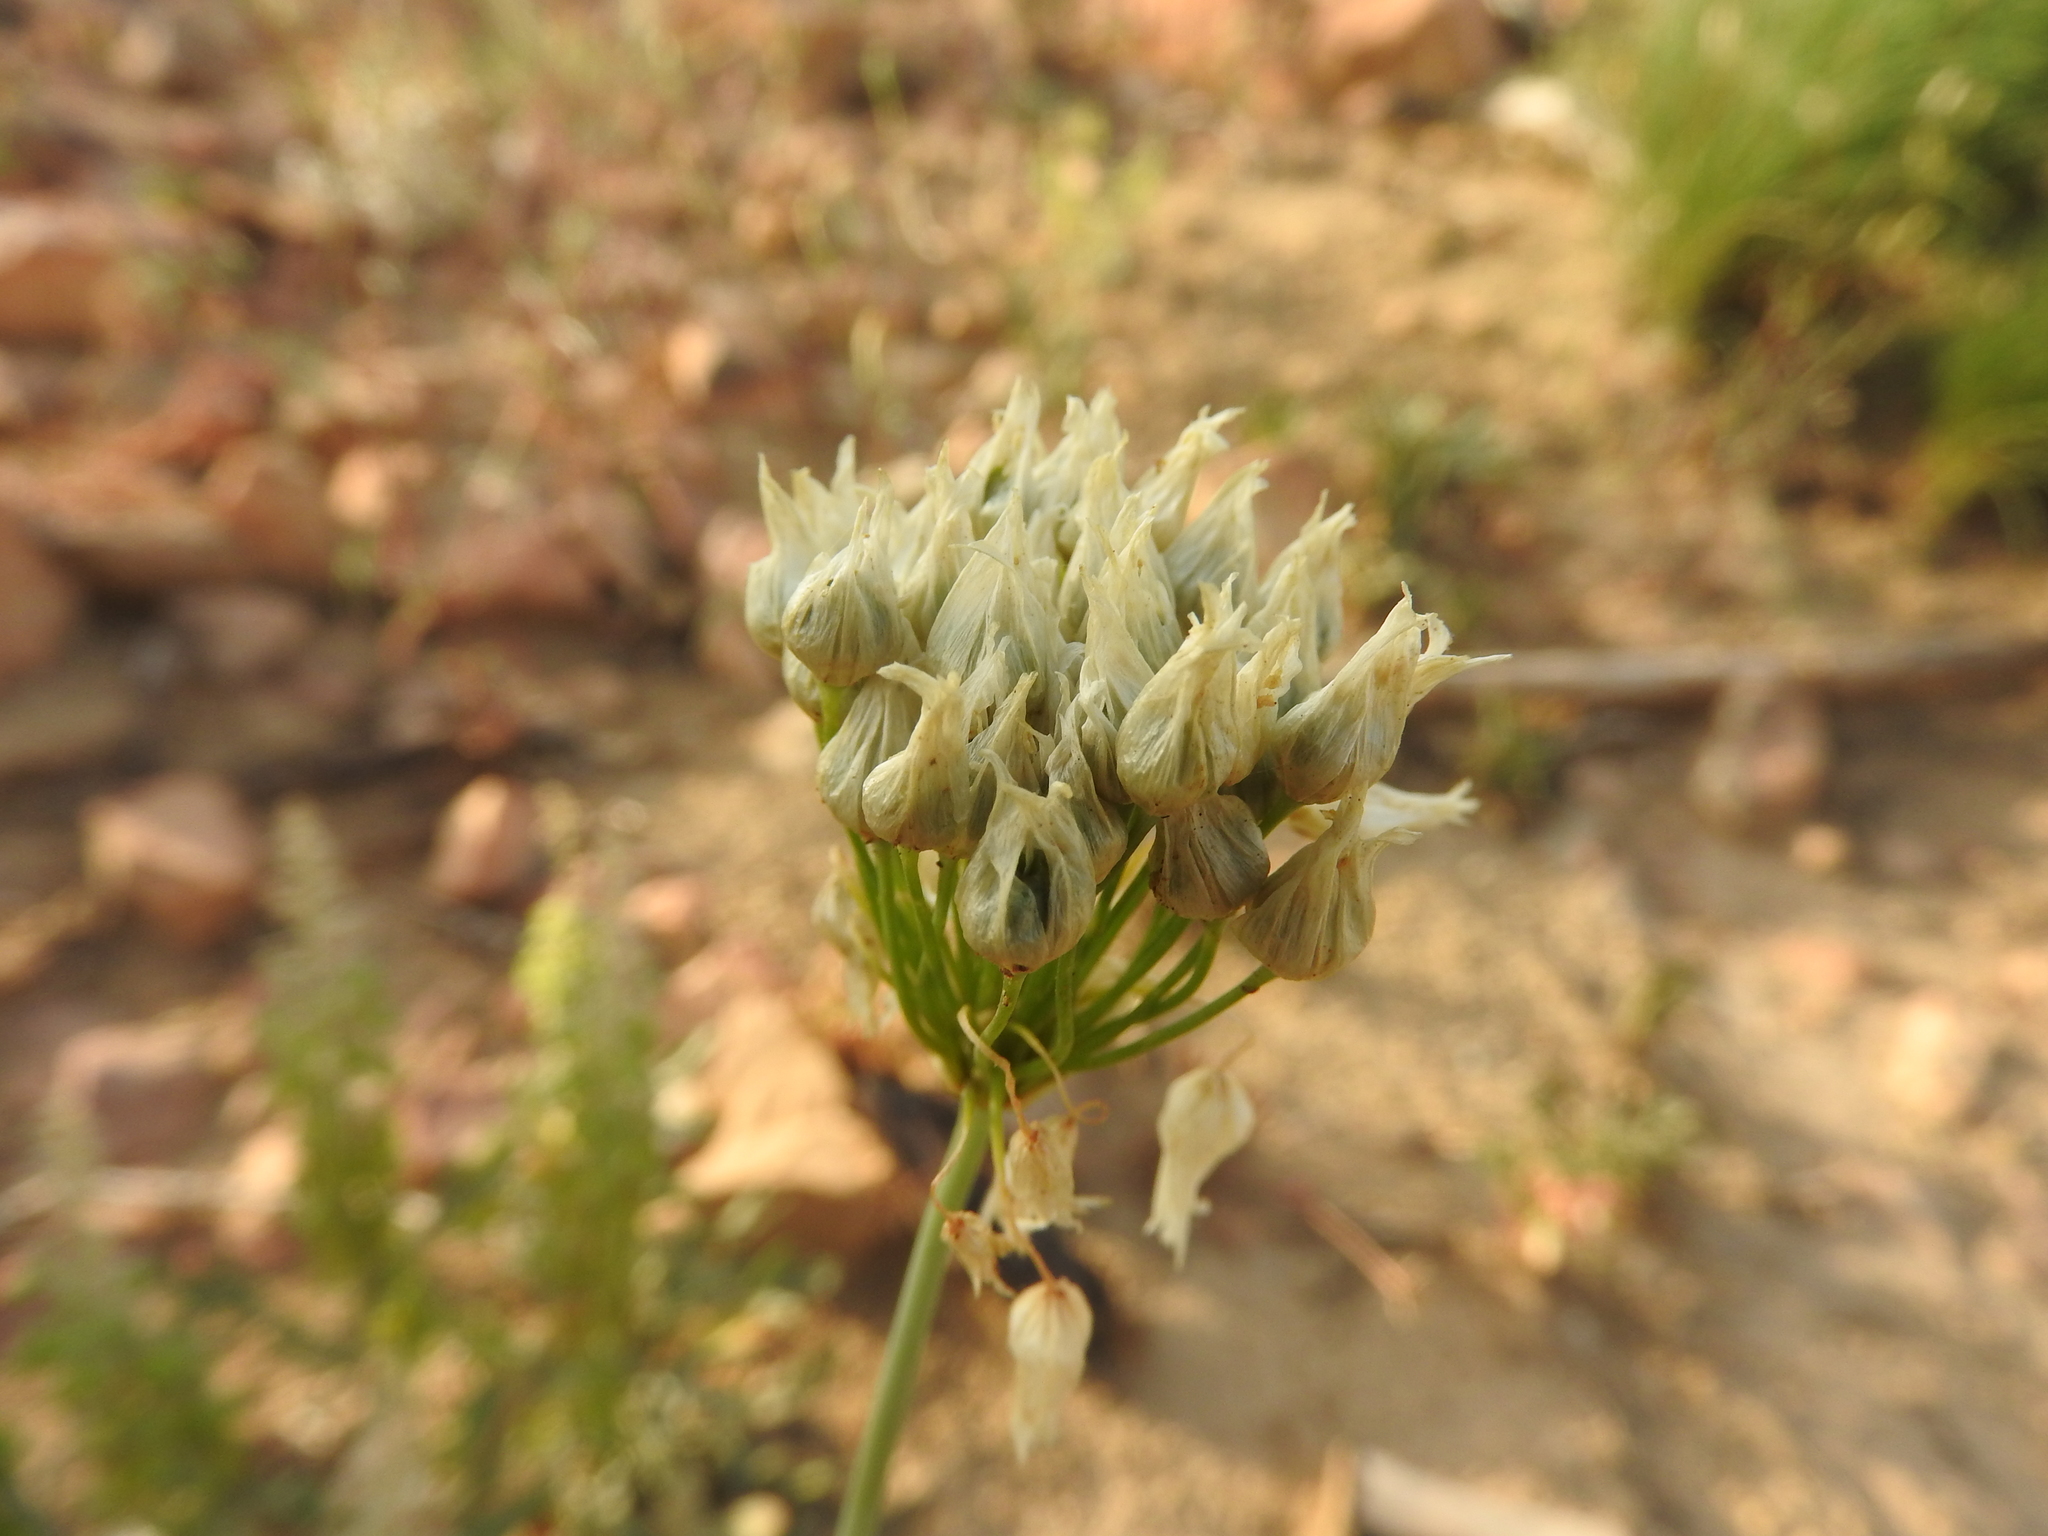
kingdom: Plantae
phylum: Tracheophyta
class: Liliopsida
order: Asparagales
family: Amaryllidaceae
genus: Allium
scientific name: Allium roseum
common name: Rosy garlic
